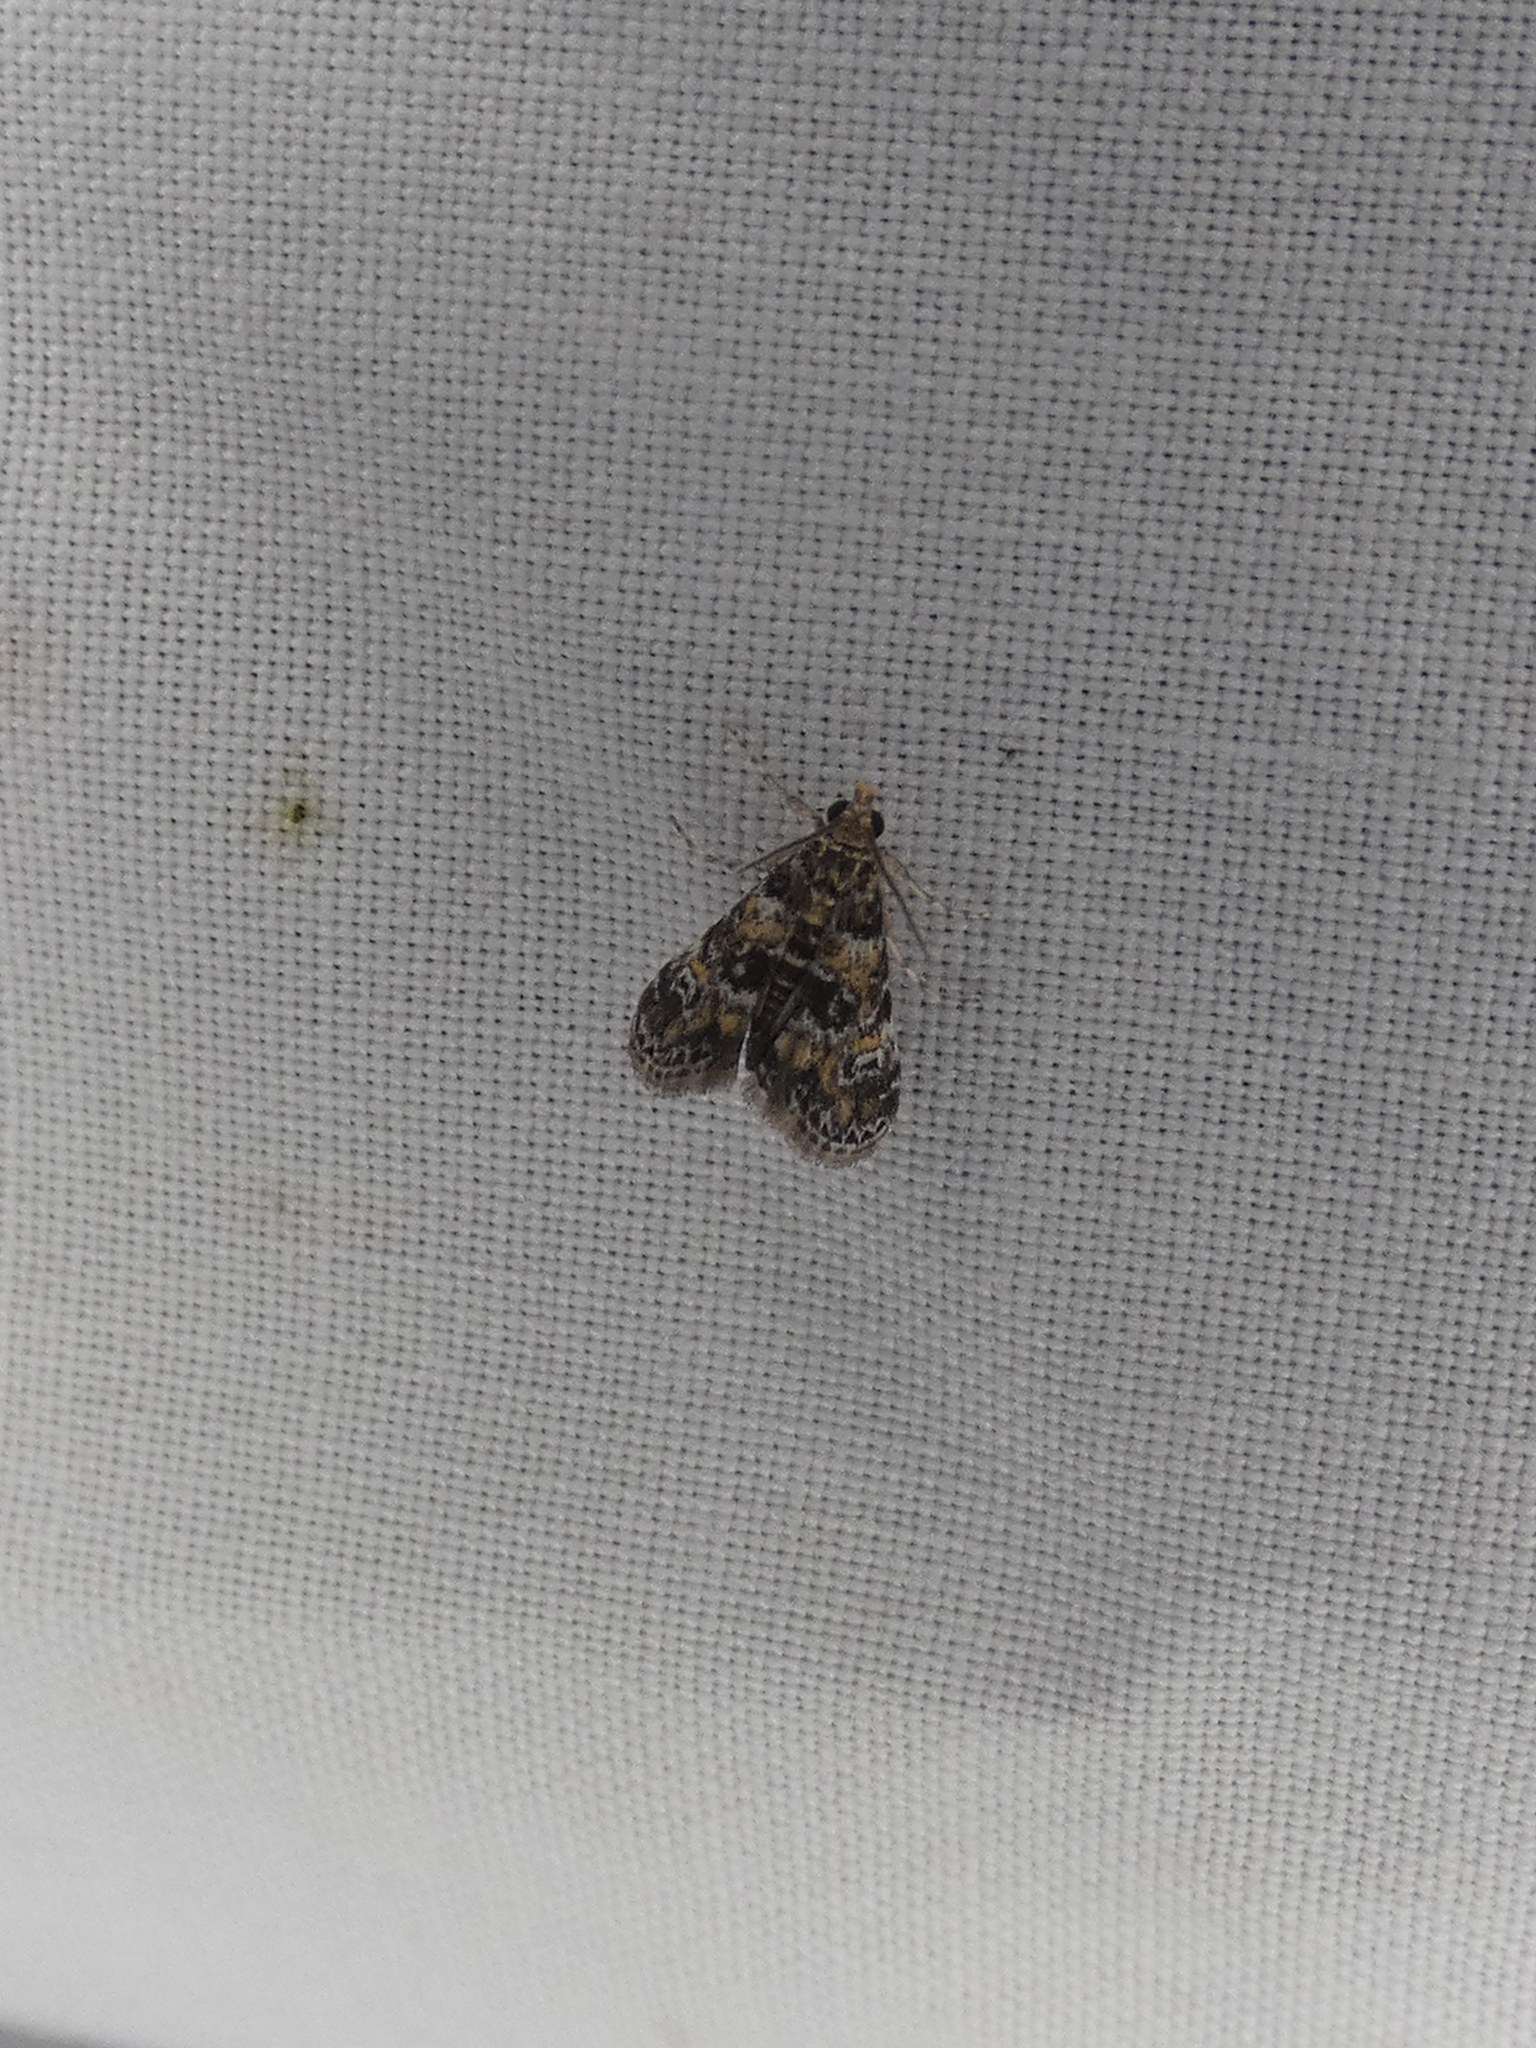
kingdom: Animalia
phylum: Arthropoda
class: Insecta
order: Lepidoptera
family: Crambidae
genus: Elophila
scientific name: Elophila obliteralis
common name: Waterlily leafcutter moth
